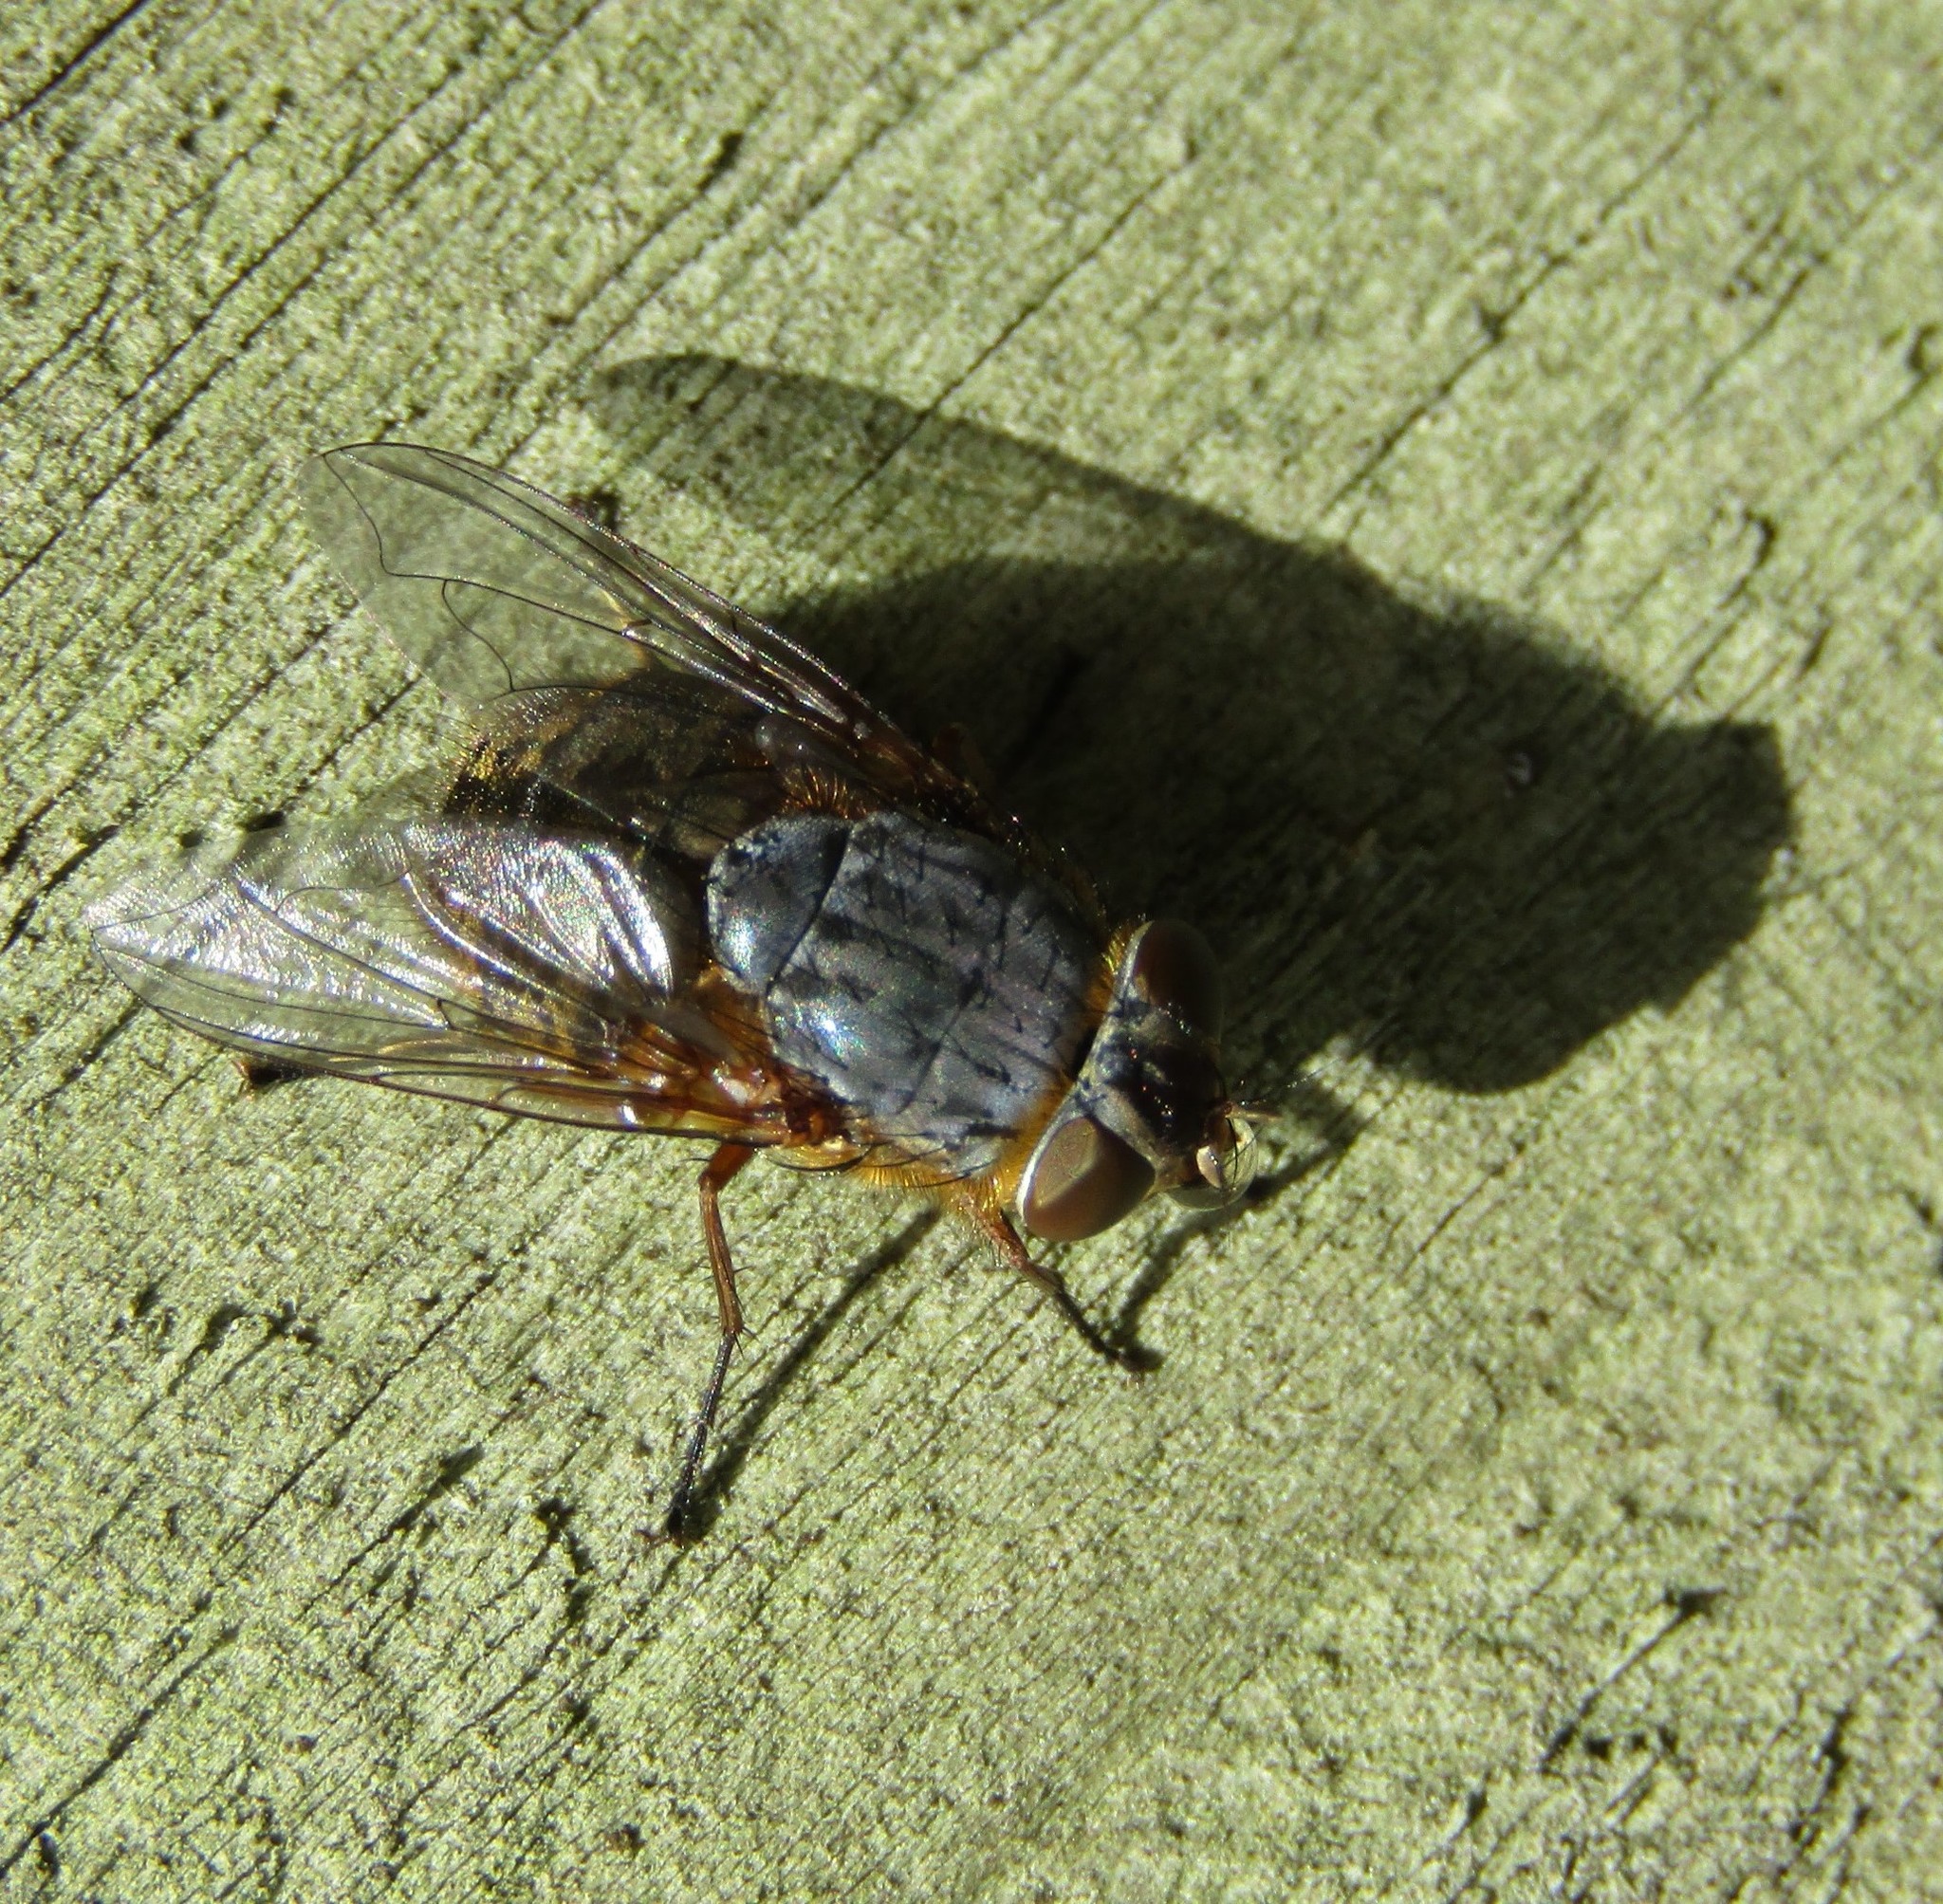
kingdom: Animalia
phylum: Arthropoda
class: Insecta
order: Diptera
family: Calliphoridae
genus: Calliphora
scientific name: Calliphora stygia
